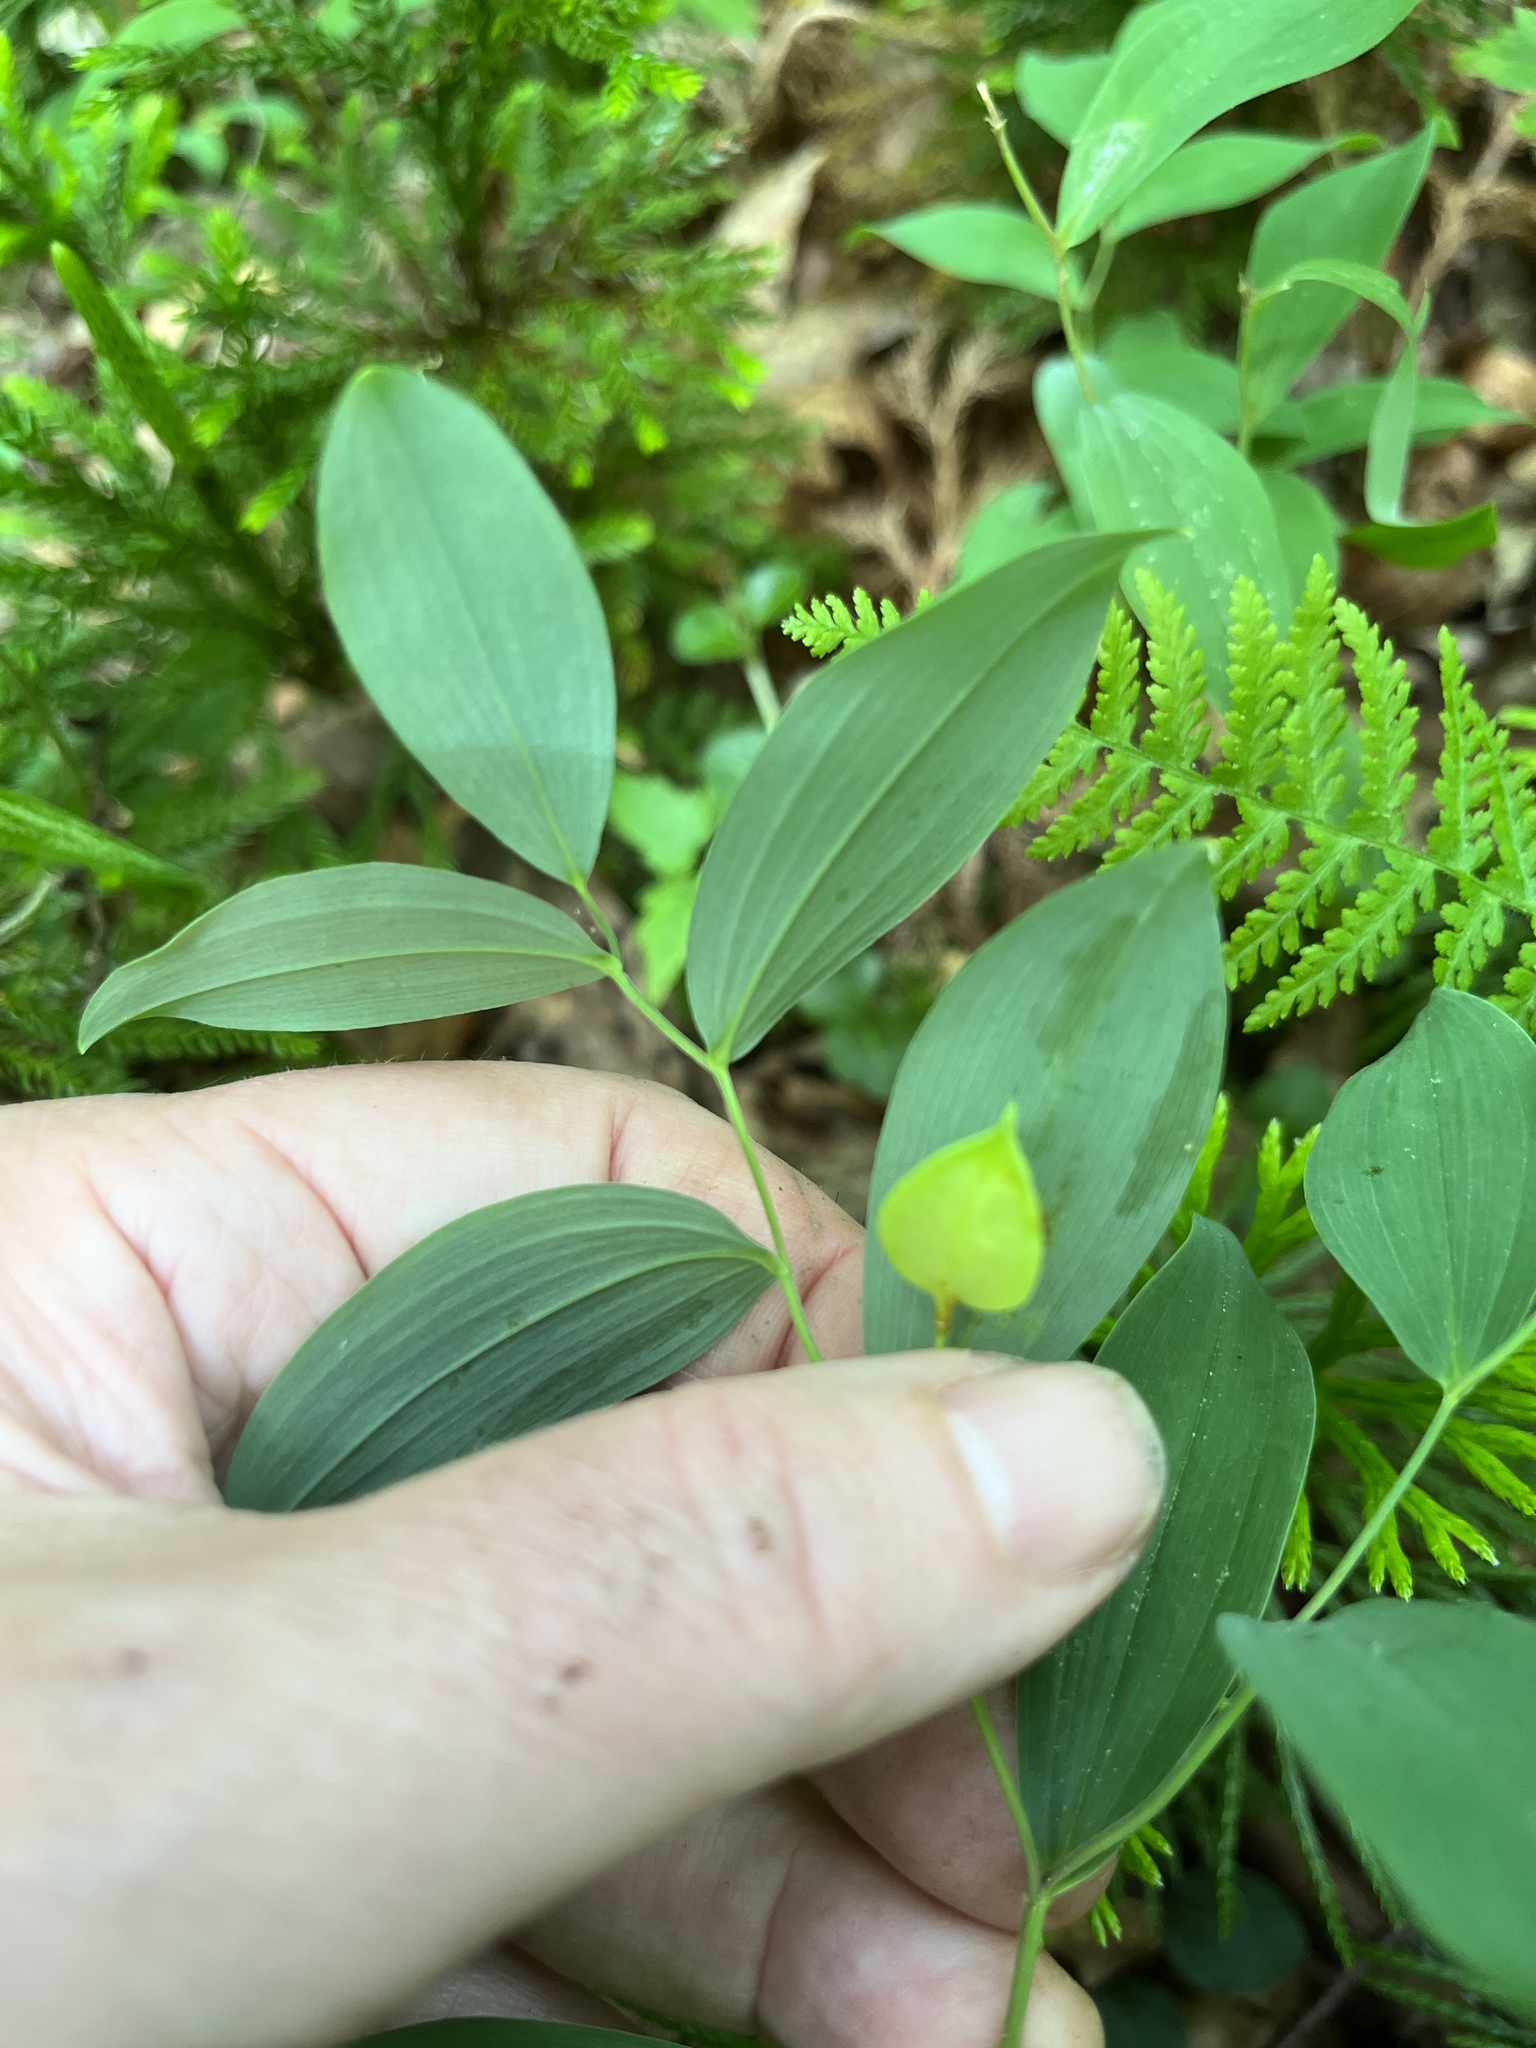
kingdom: Plantae
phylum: Tracheophyta
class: Liliopsida
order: Liliales
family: Colchicaceae
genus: Uvularia
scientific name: Uvularia sessilifolia
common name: Straw-lily
